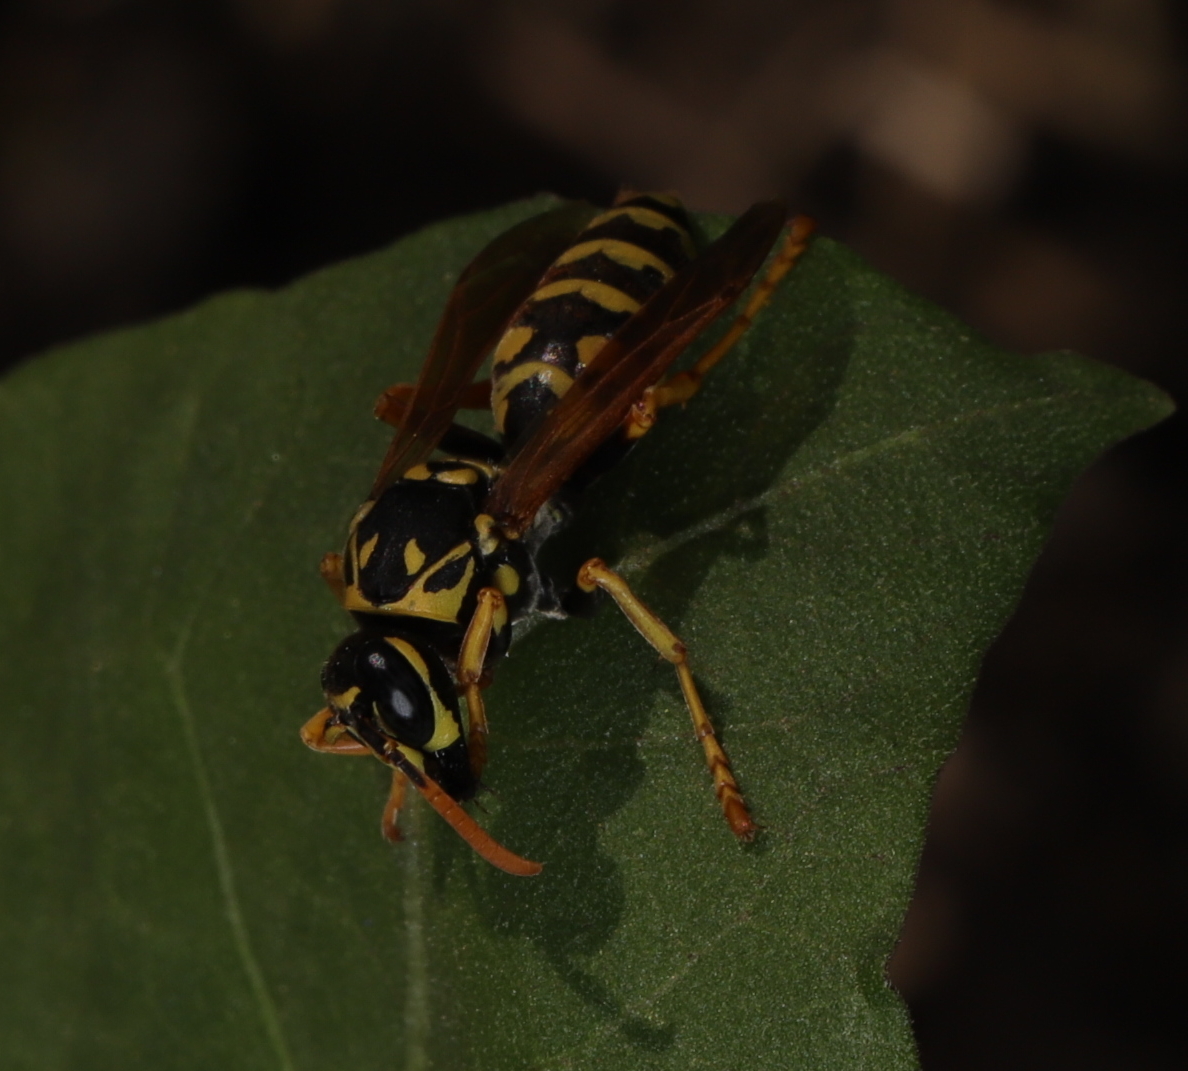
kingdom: Animalia
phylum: Arthropoda
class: Insecta
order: Hymenoptera
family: Eumenidae
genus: Polistes
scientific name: Polistes dominula
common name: Paper wasp
